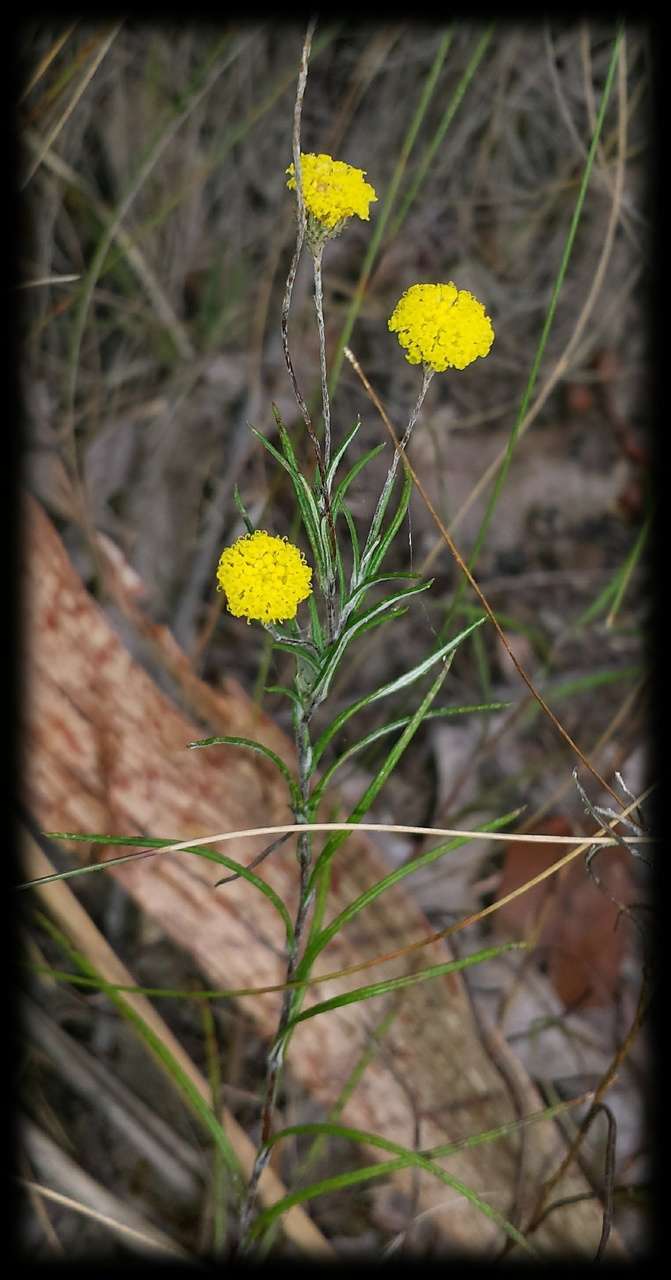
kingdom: Plantae
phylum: Tracheophyta
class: Magnoliopsida
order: Asterales
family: Asteraceae
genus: Leptorhynchos
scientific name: Leptorhynchos tenuifolius
